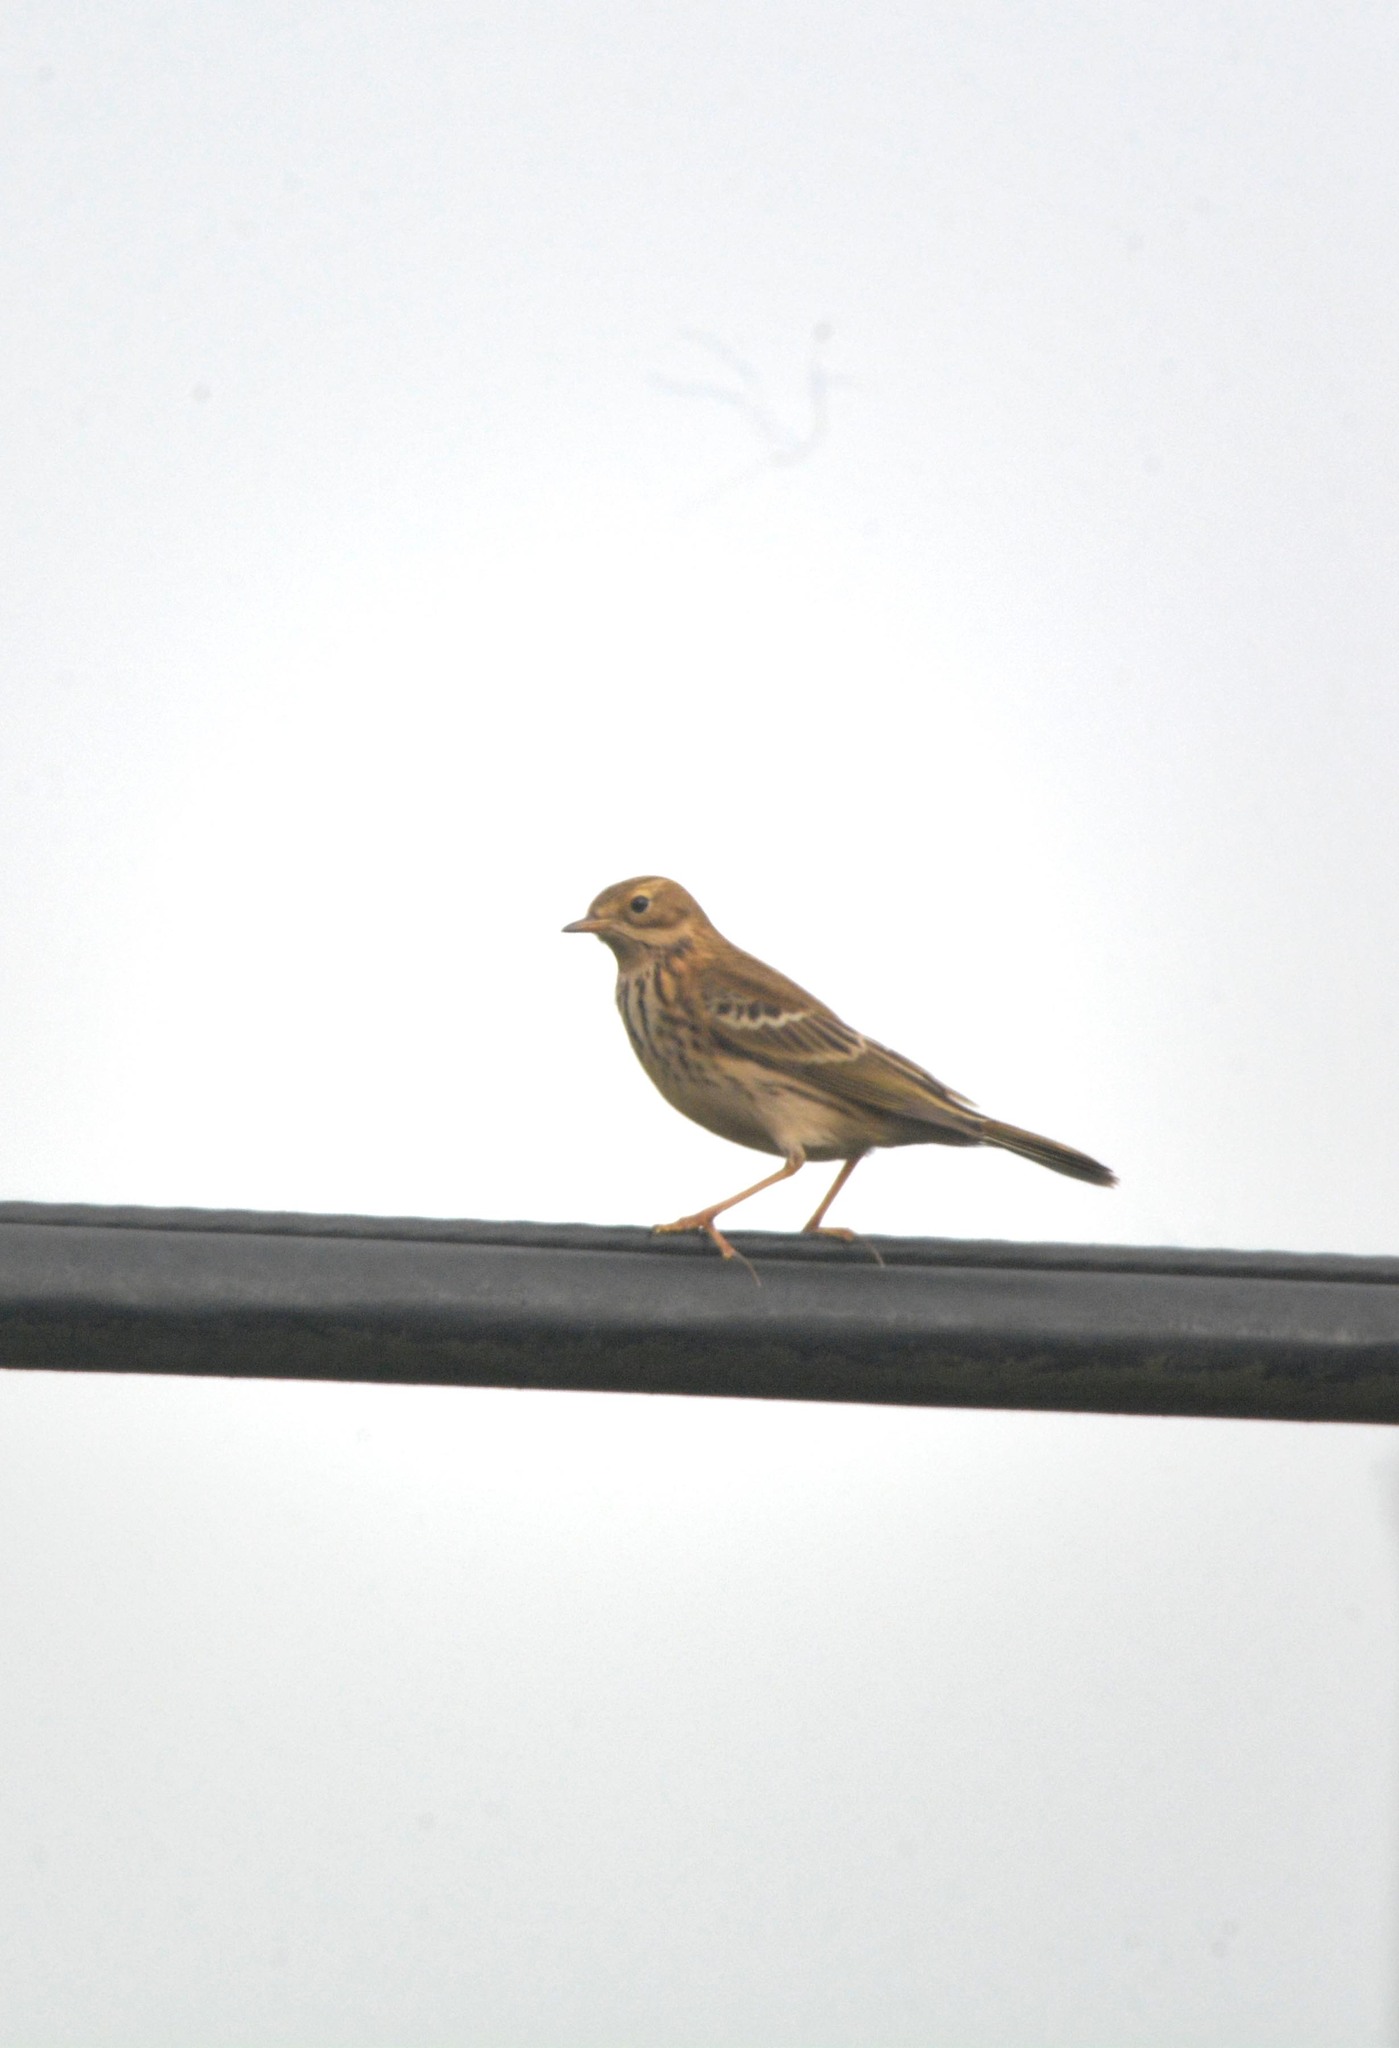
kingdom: Animalia
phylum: Chordata
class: Aves
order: Passeriformes
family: Motacillidae
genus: Anthus
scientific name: Anthus pratensis
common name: Meadow pipit
